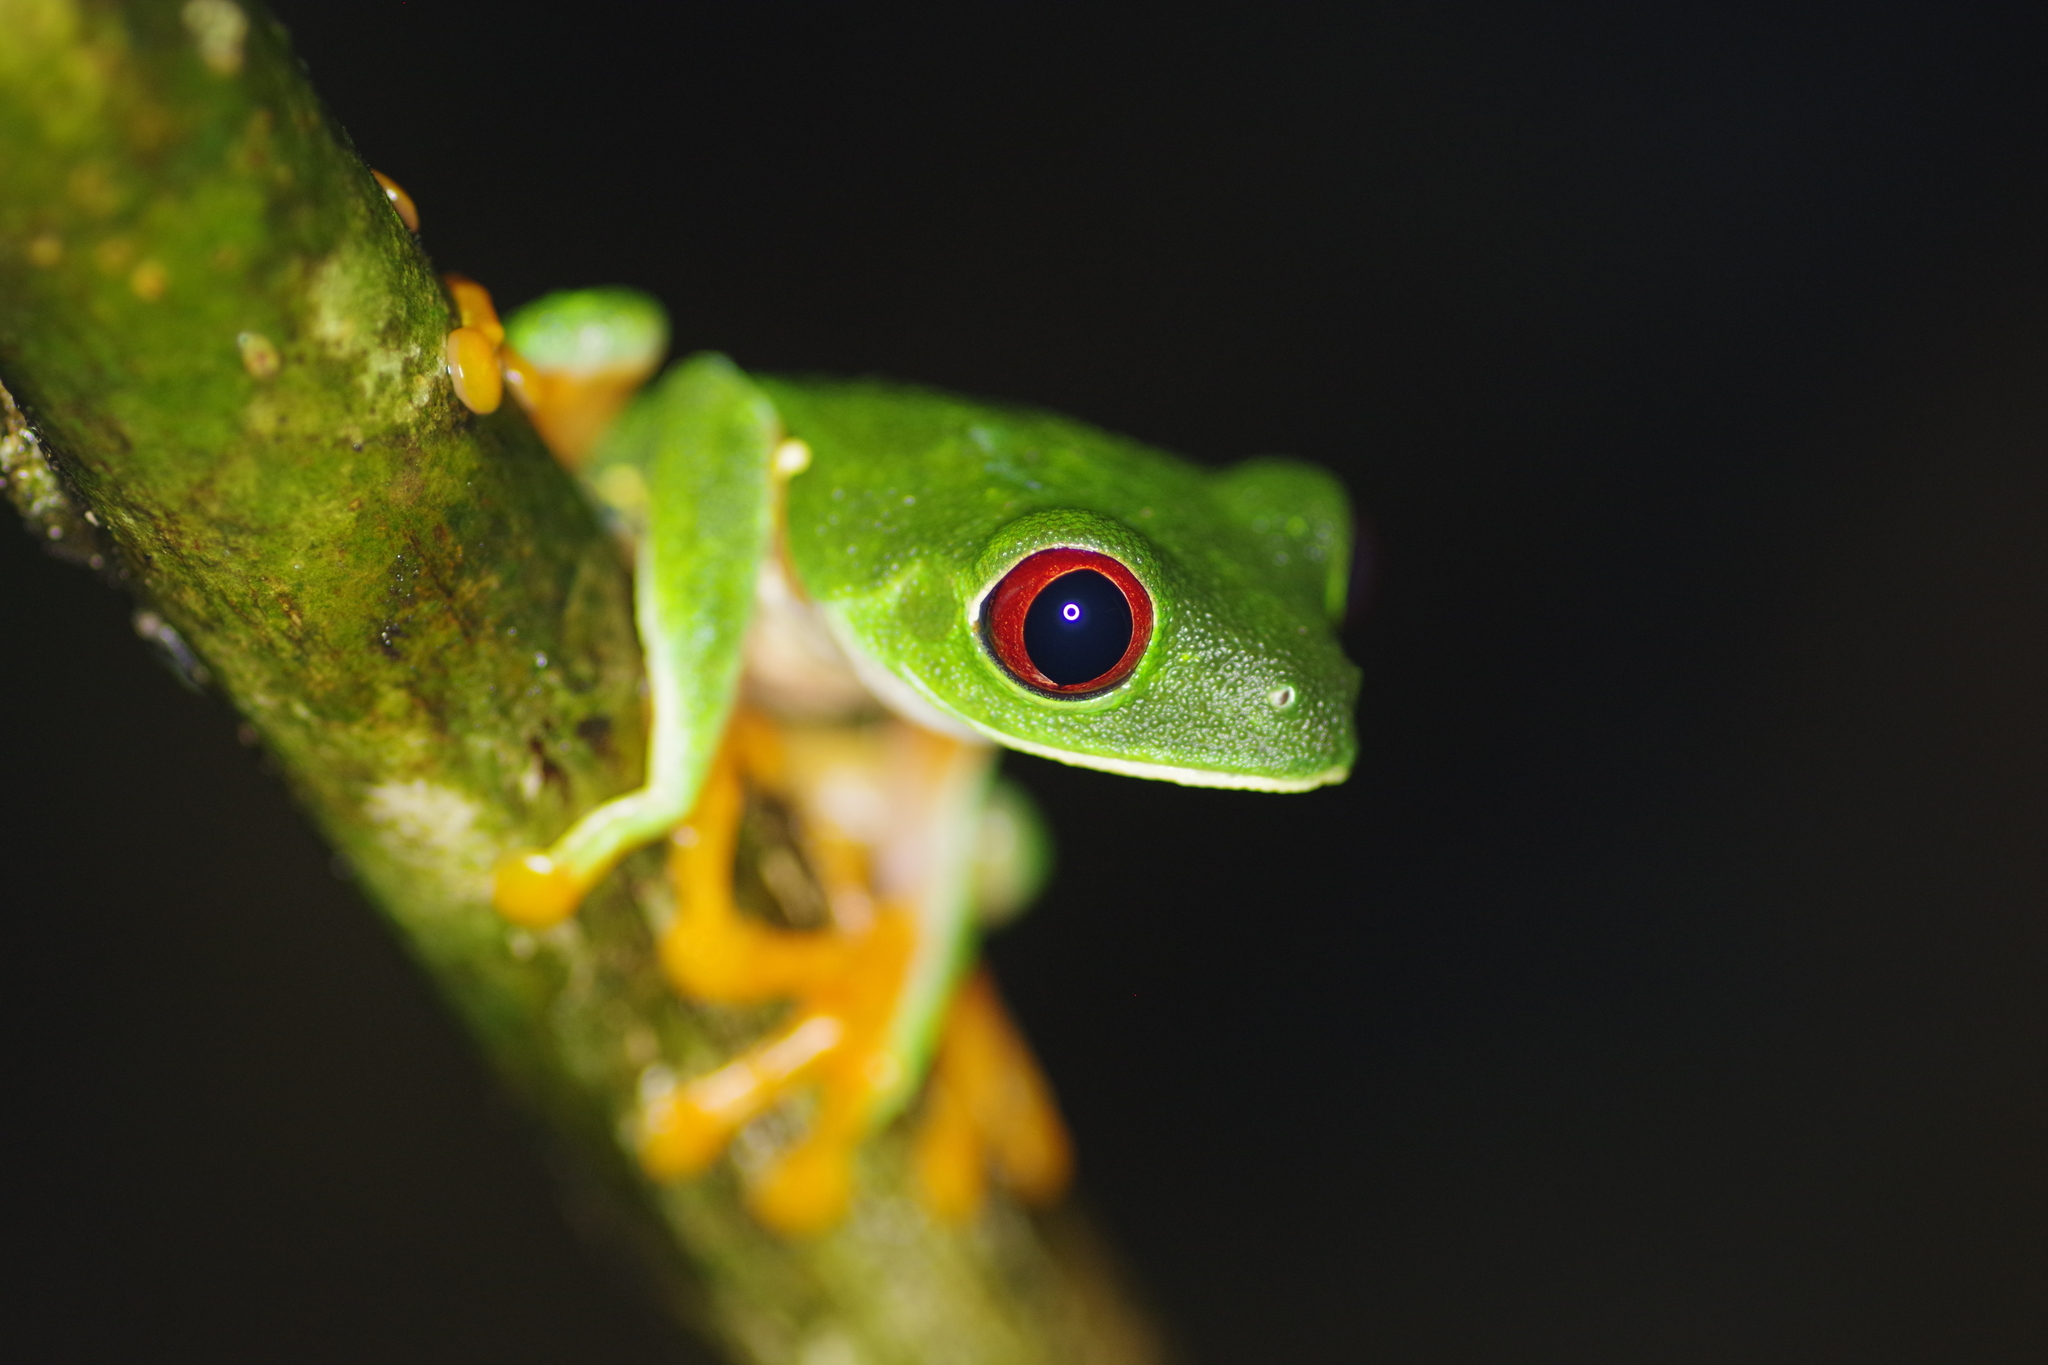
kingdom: Animalia
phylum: Chordata
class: Amphibia
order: Anura
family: Phyllomedusidae
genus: Agalychnis
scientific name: Agalychnis callidryas
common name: Red-eyed treefrog
